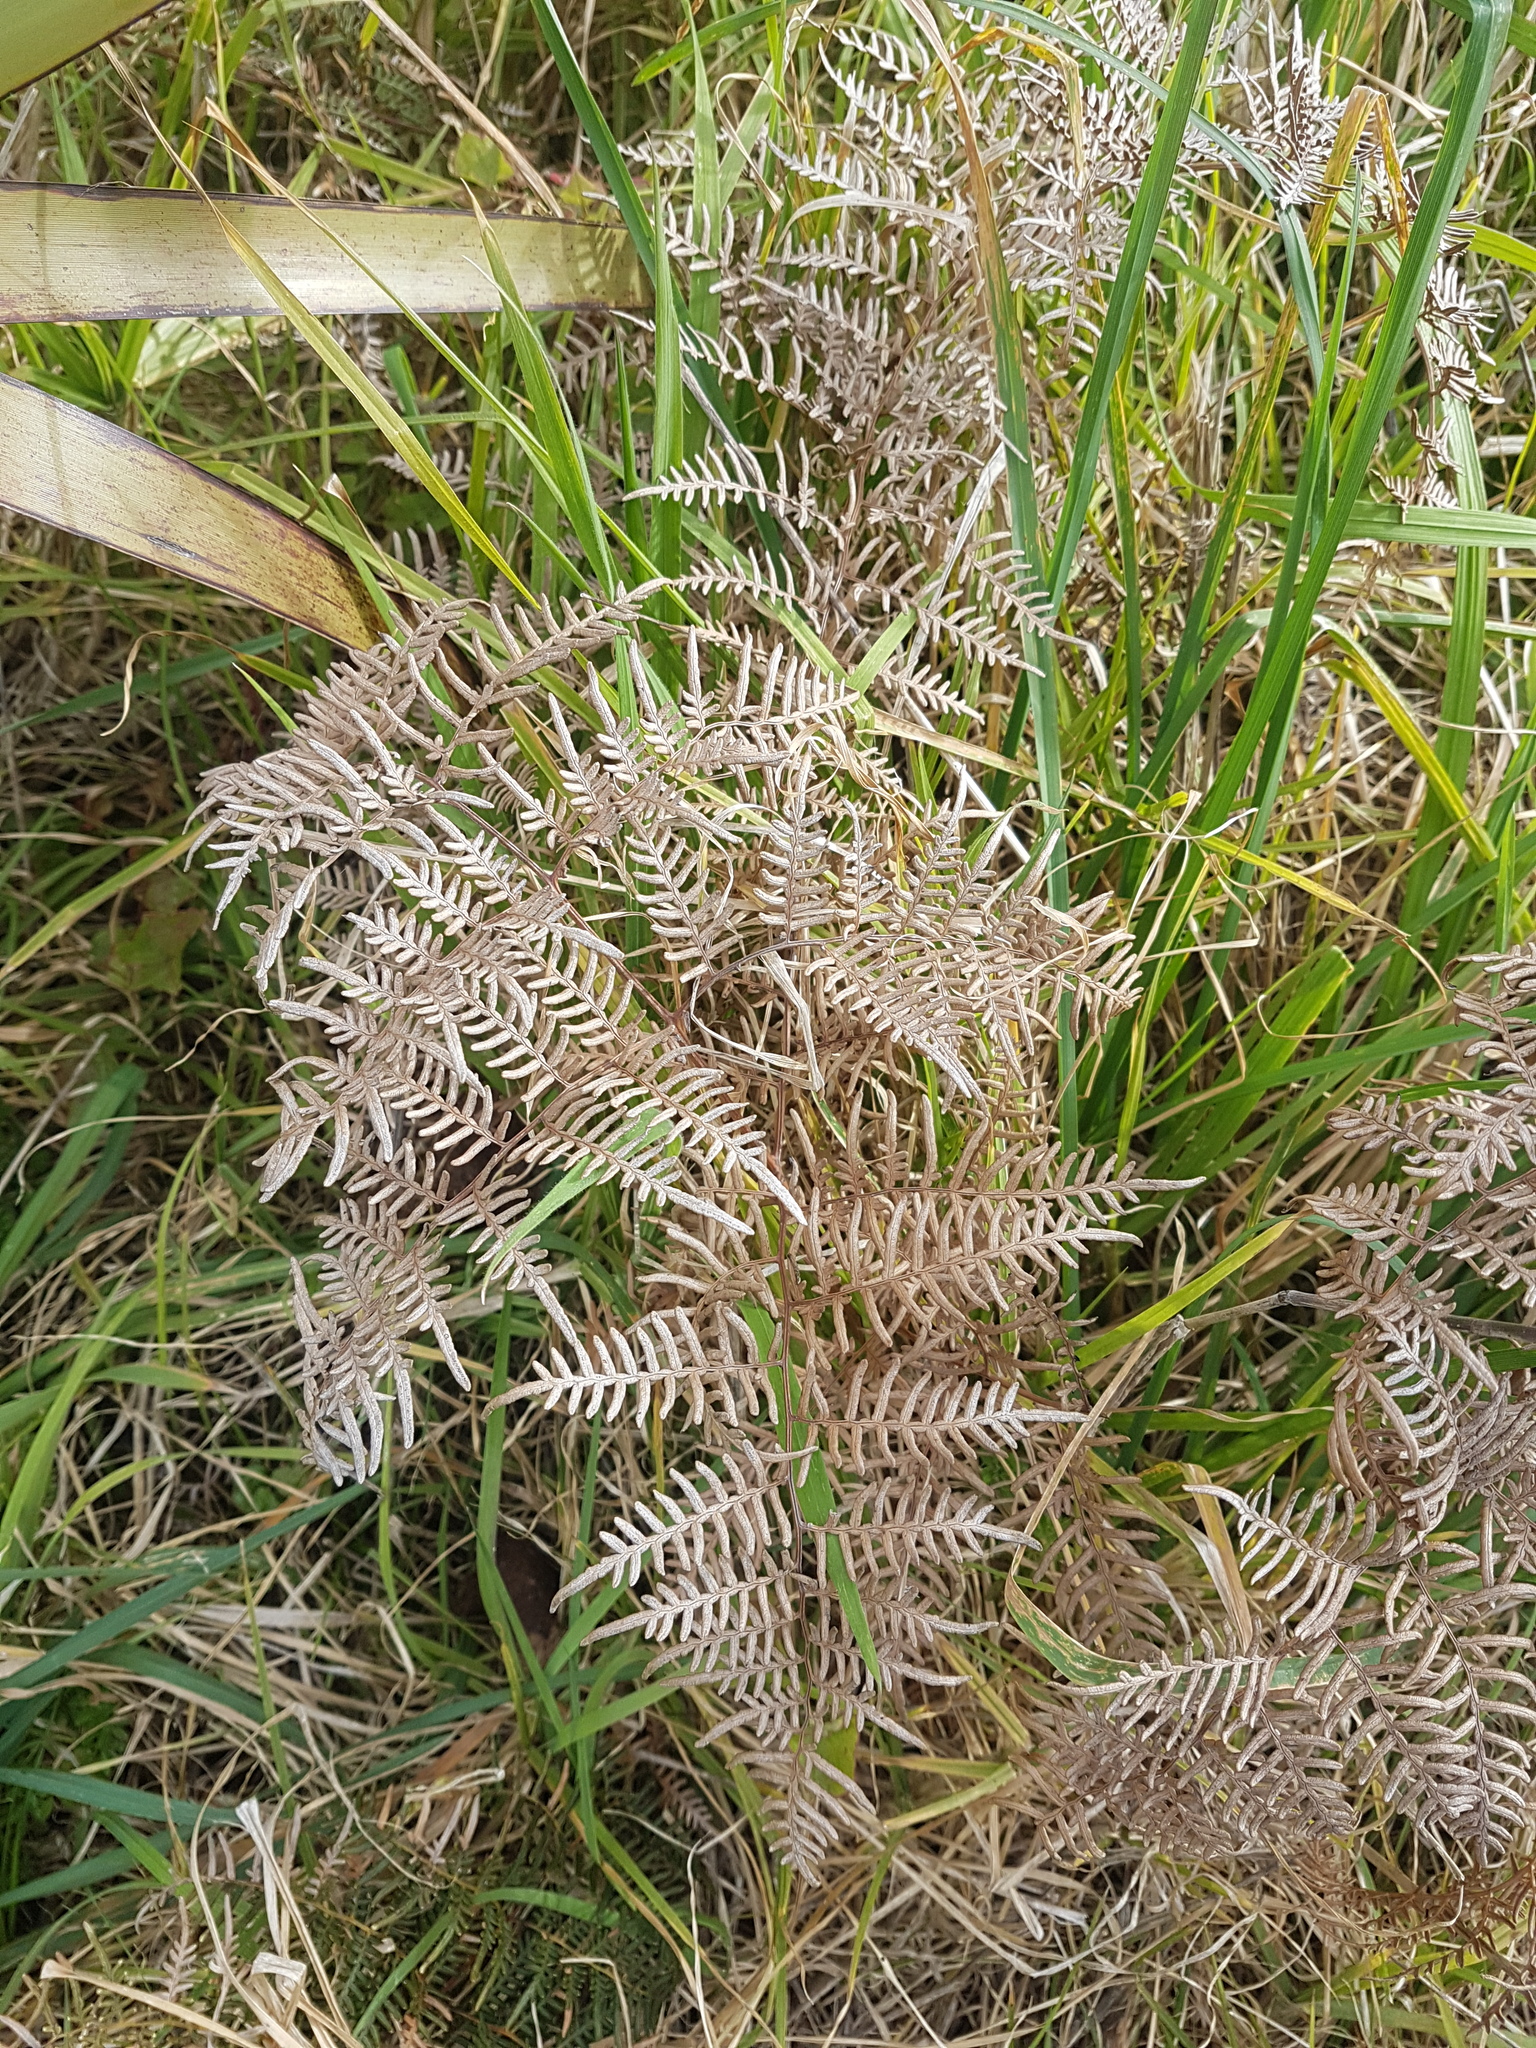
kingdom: Plantae
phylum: Tracheophyta
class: Polypodiopsida
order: Polypodiales
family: Dennstaedtiaceae
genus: Pteridium
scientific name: Pteridium esculentum
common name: Bracken fern
